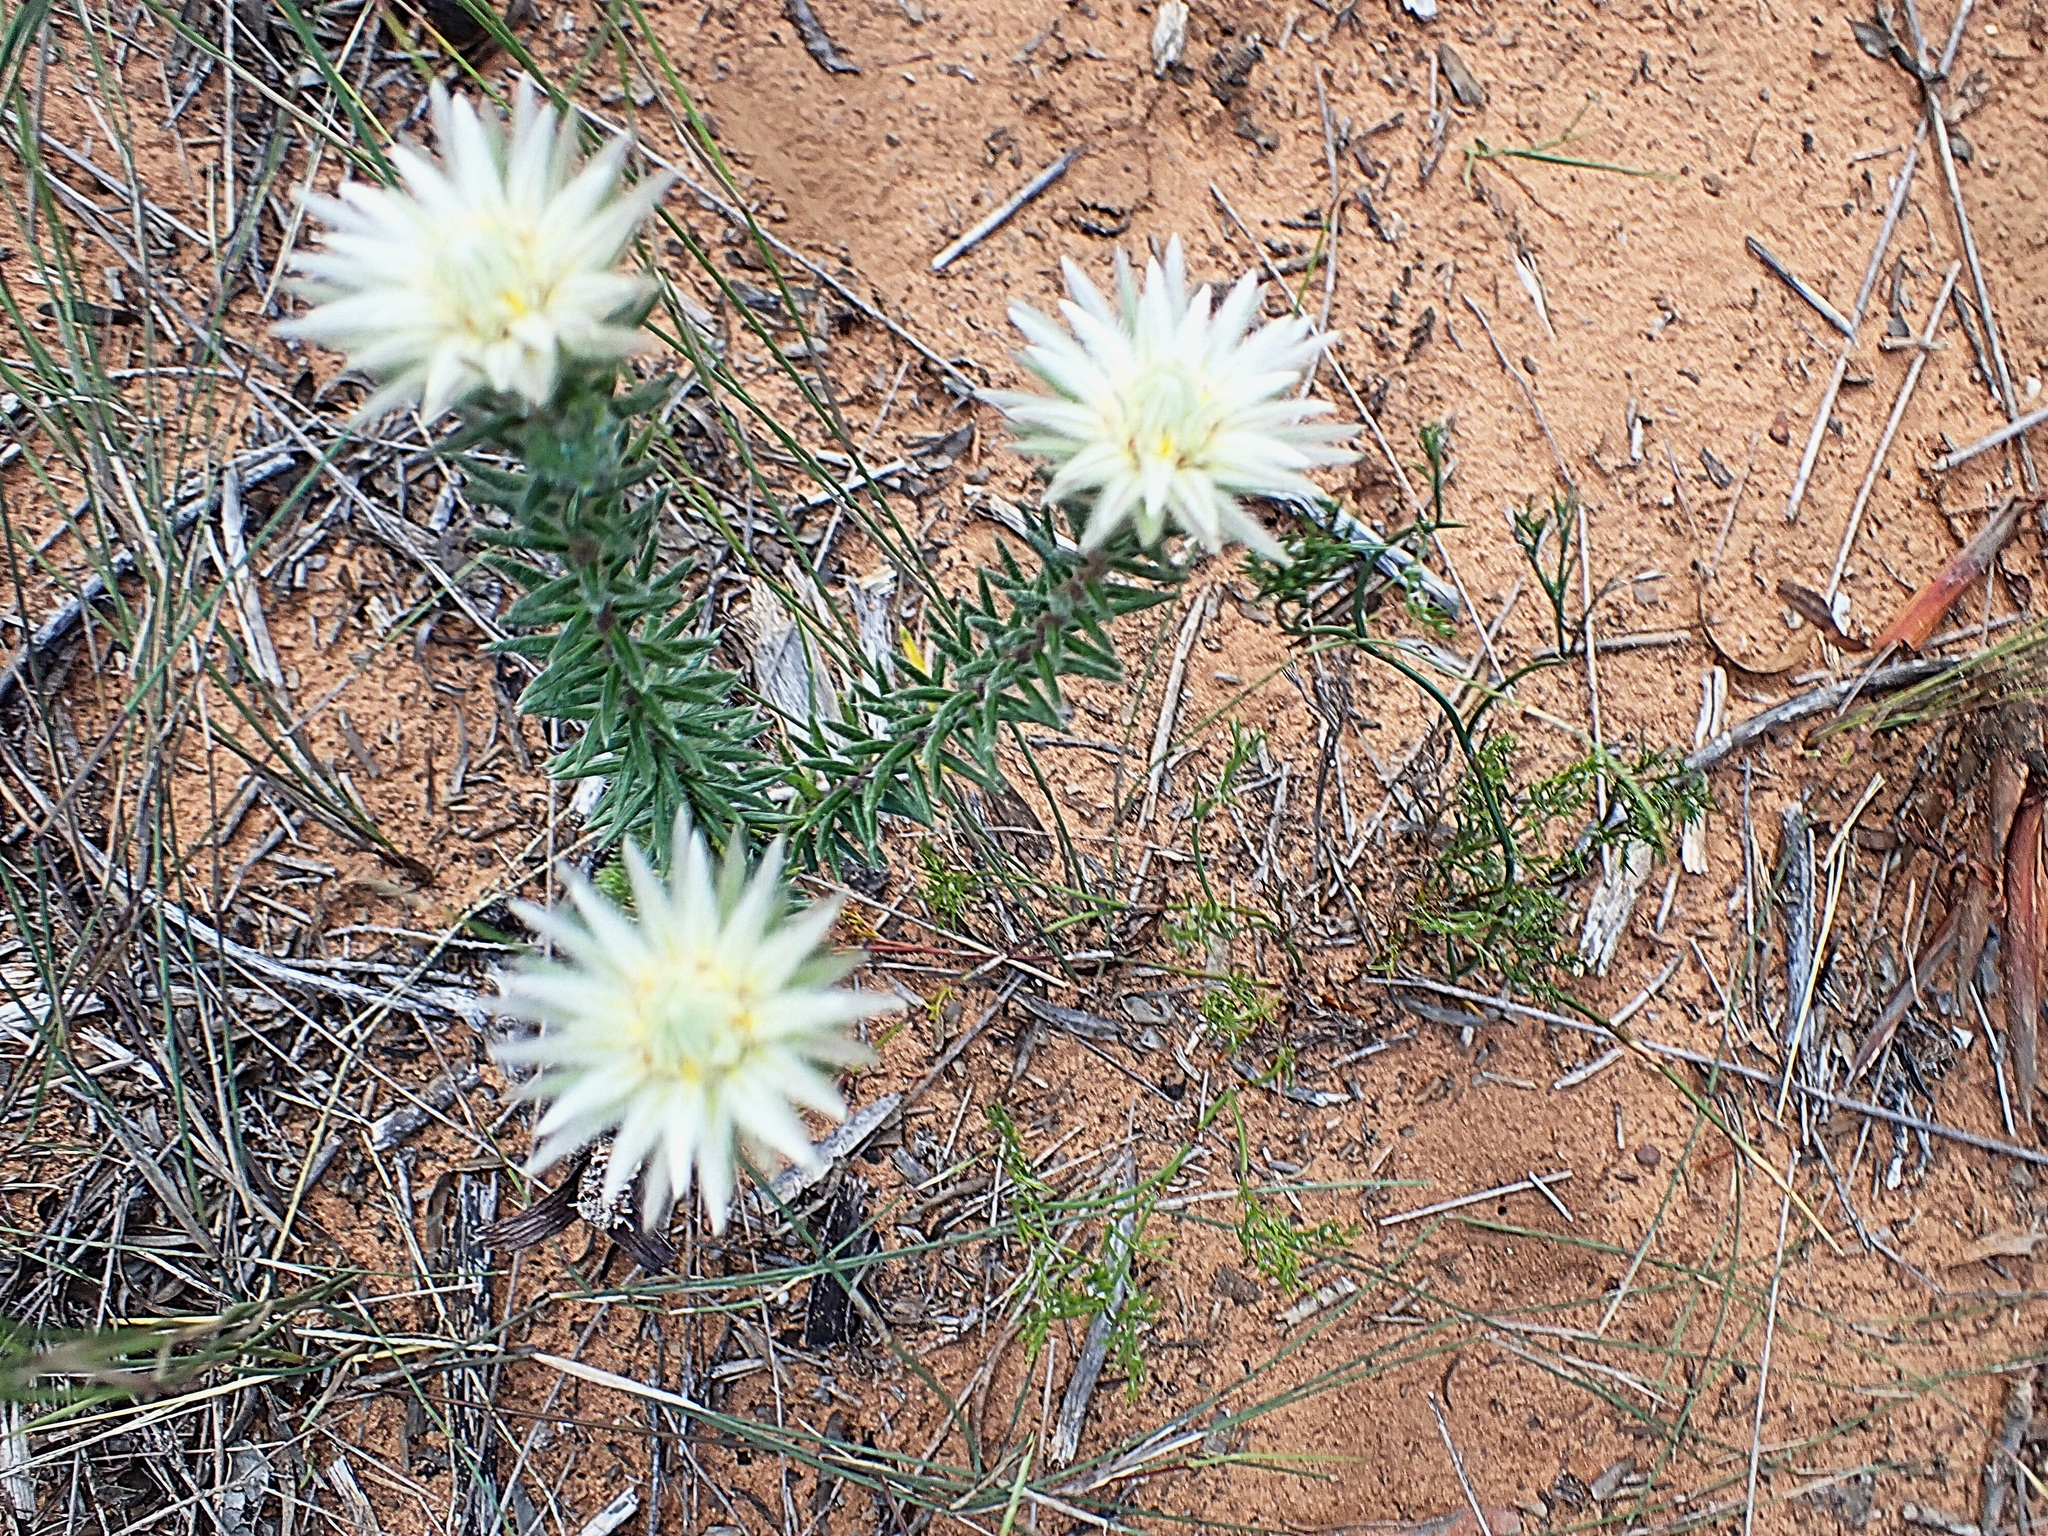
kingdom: Plantae
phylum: Tracheophyta
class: Magnoliopsida
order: Rosales
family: Rhamnaceae
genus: Phylica
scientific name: Phylica pubescens
